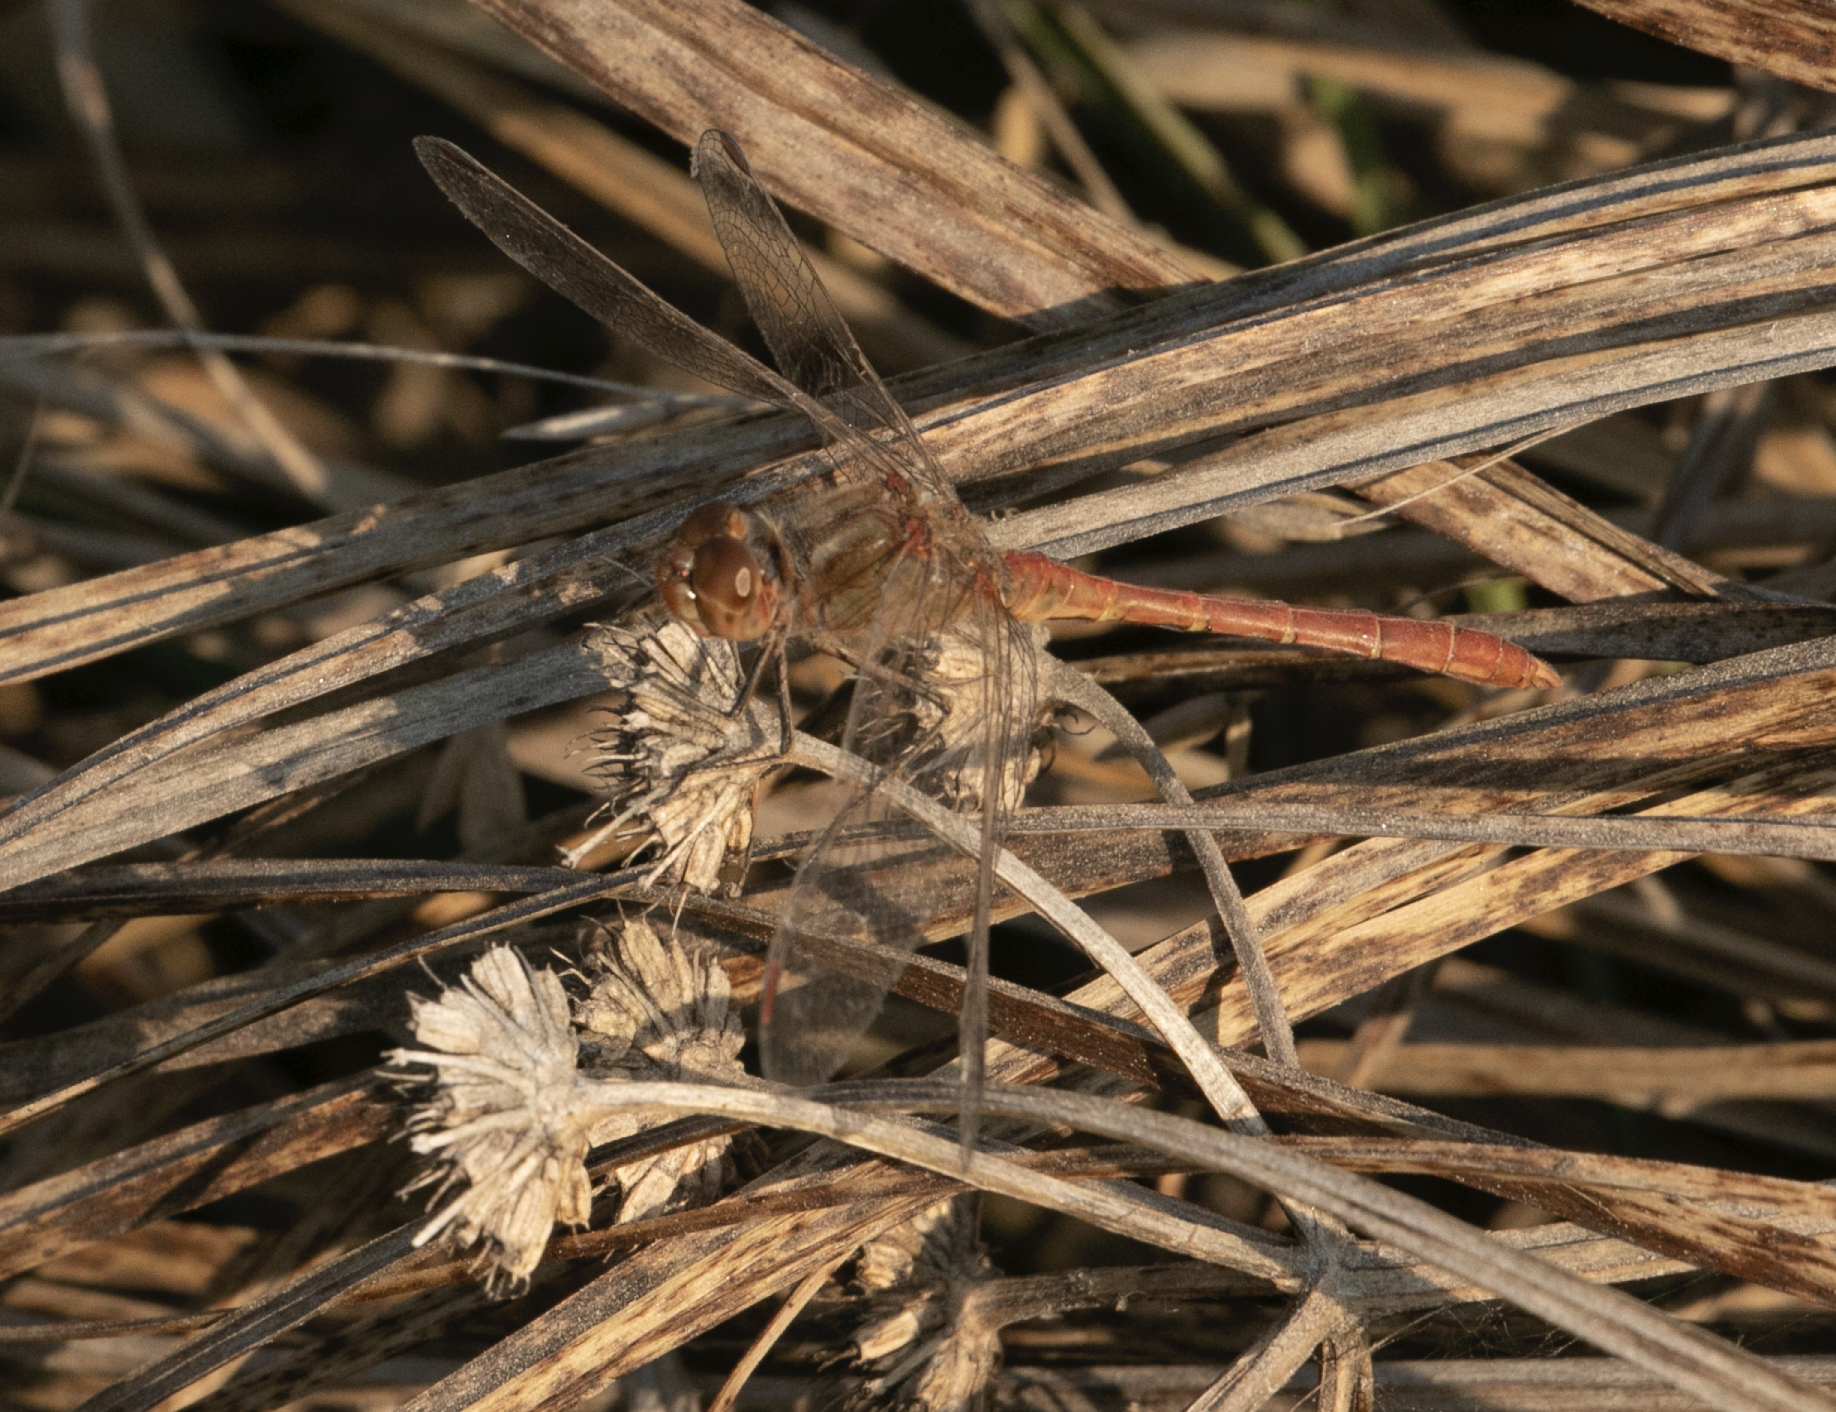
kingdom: Animalia
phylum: Arthropoda
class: Insecta
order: Odonata
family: Libellulidae
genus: Sympetrum
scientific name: Sympetrum meridionale
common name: Southern darter
